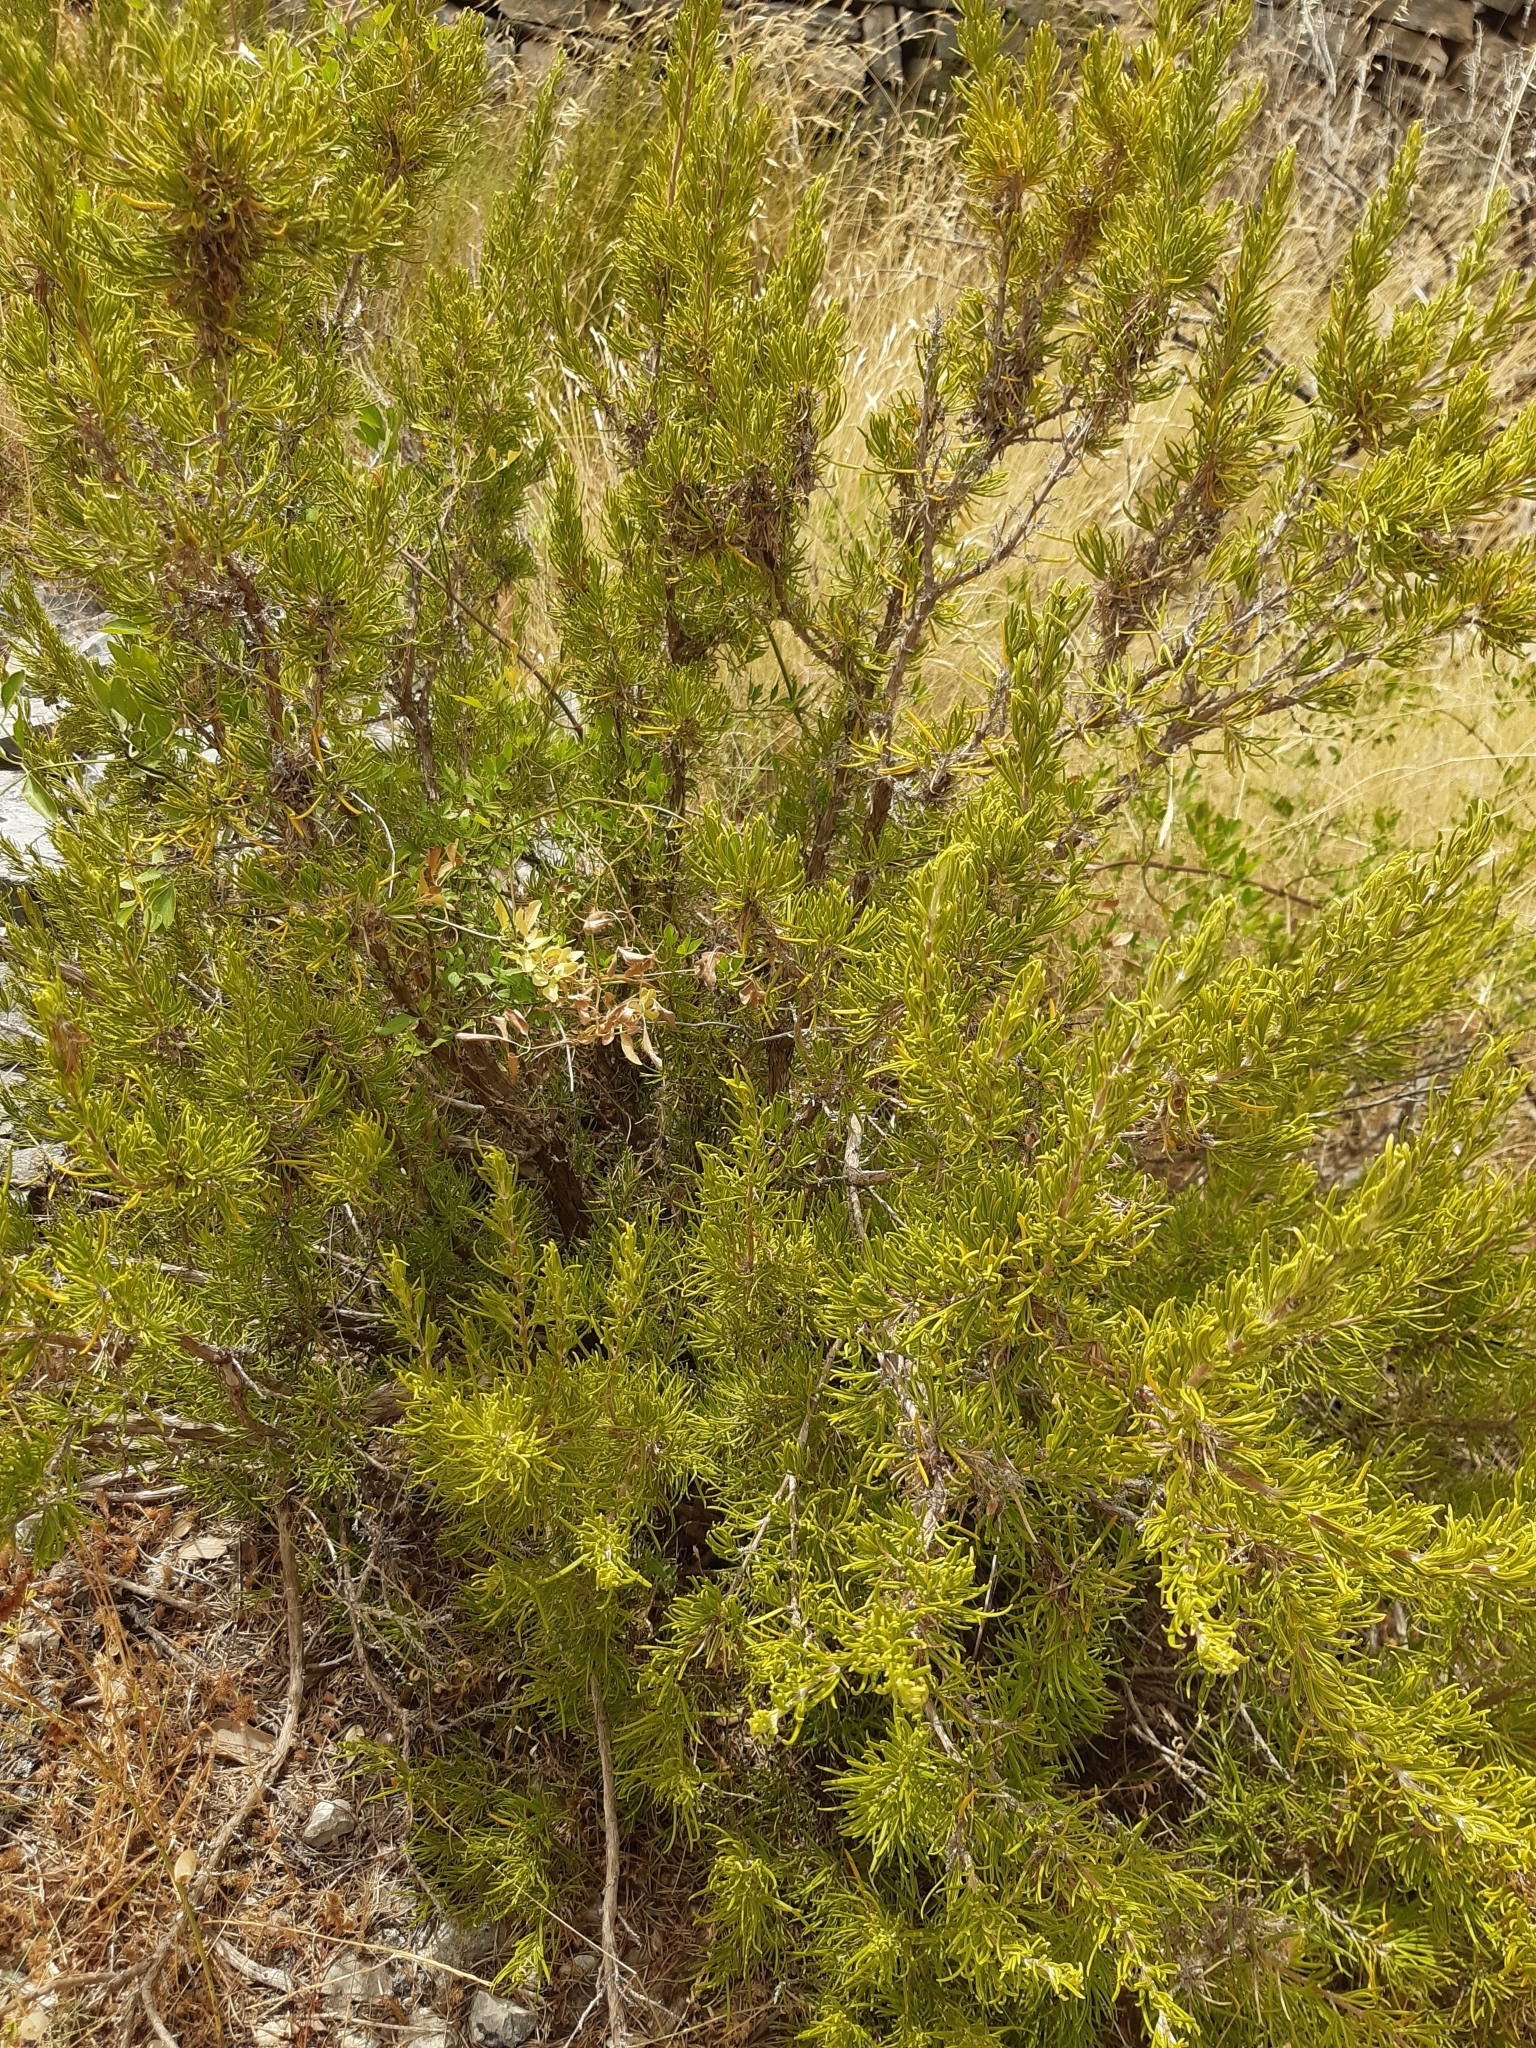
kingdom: Plantae
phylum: Tracheophyta
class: Magnoliopsida
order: Lamiales
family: Lamiaceae
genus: Salvia
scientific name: Salvia rosmarinus
